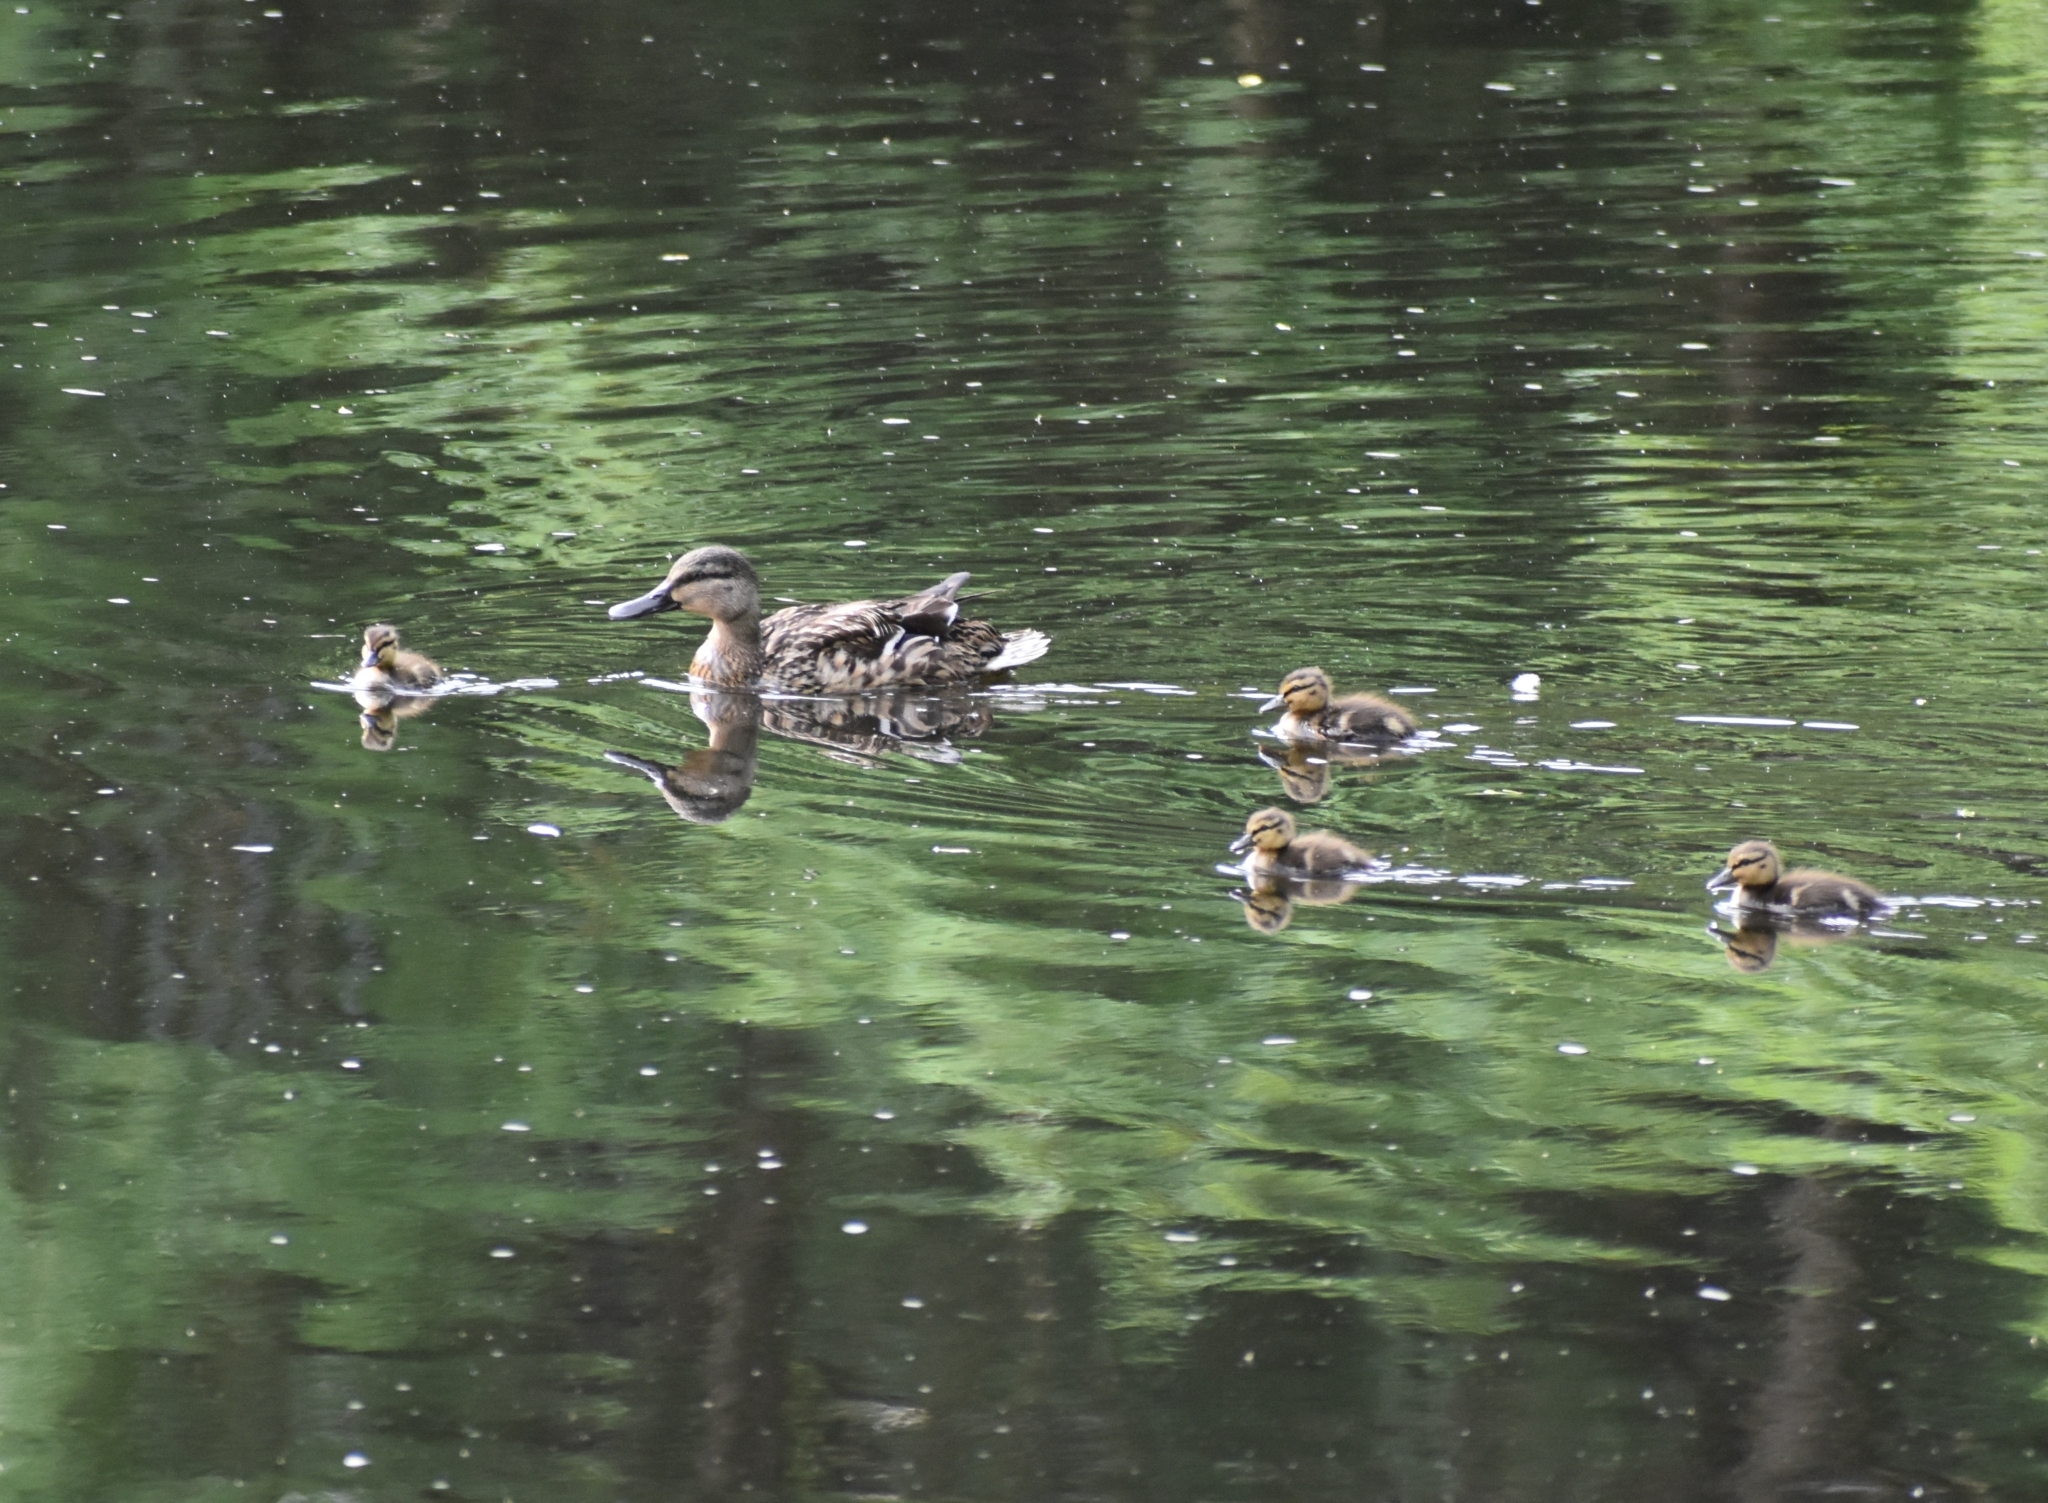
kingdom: Animalia
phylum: Chordata
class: Aves
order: Anseriformes
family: Anatidae
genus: Anas
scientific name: Anas platyrhynchos
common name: Mallard
